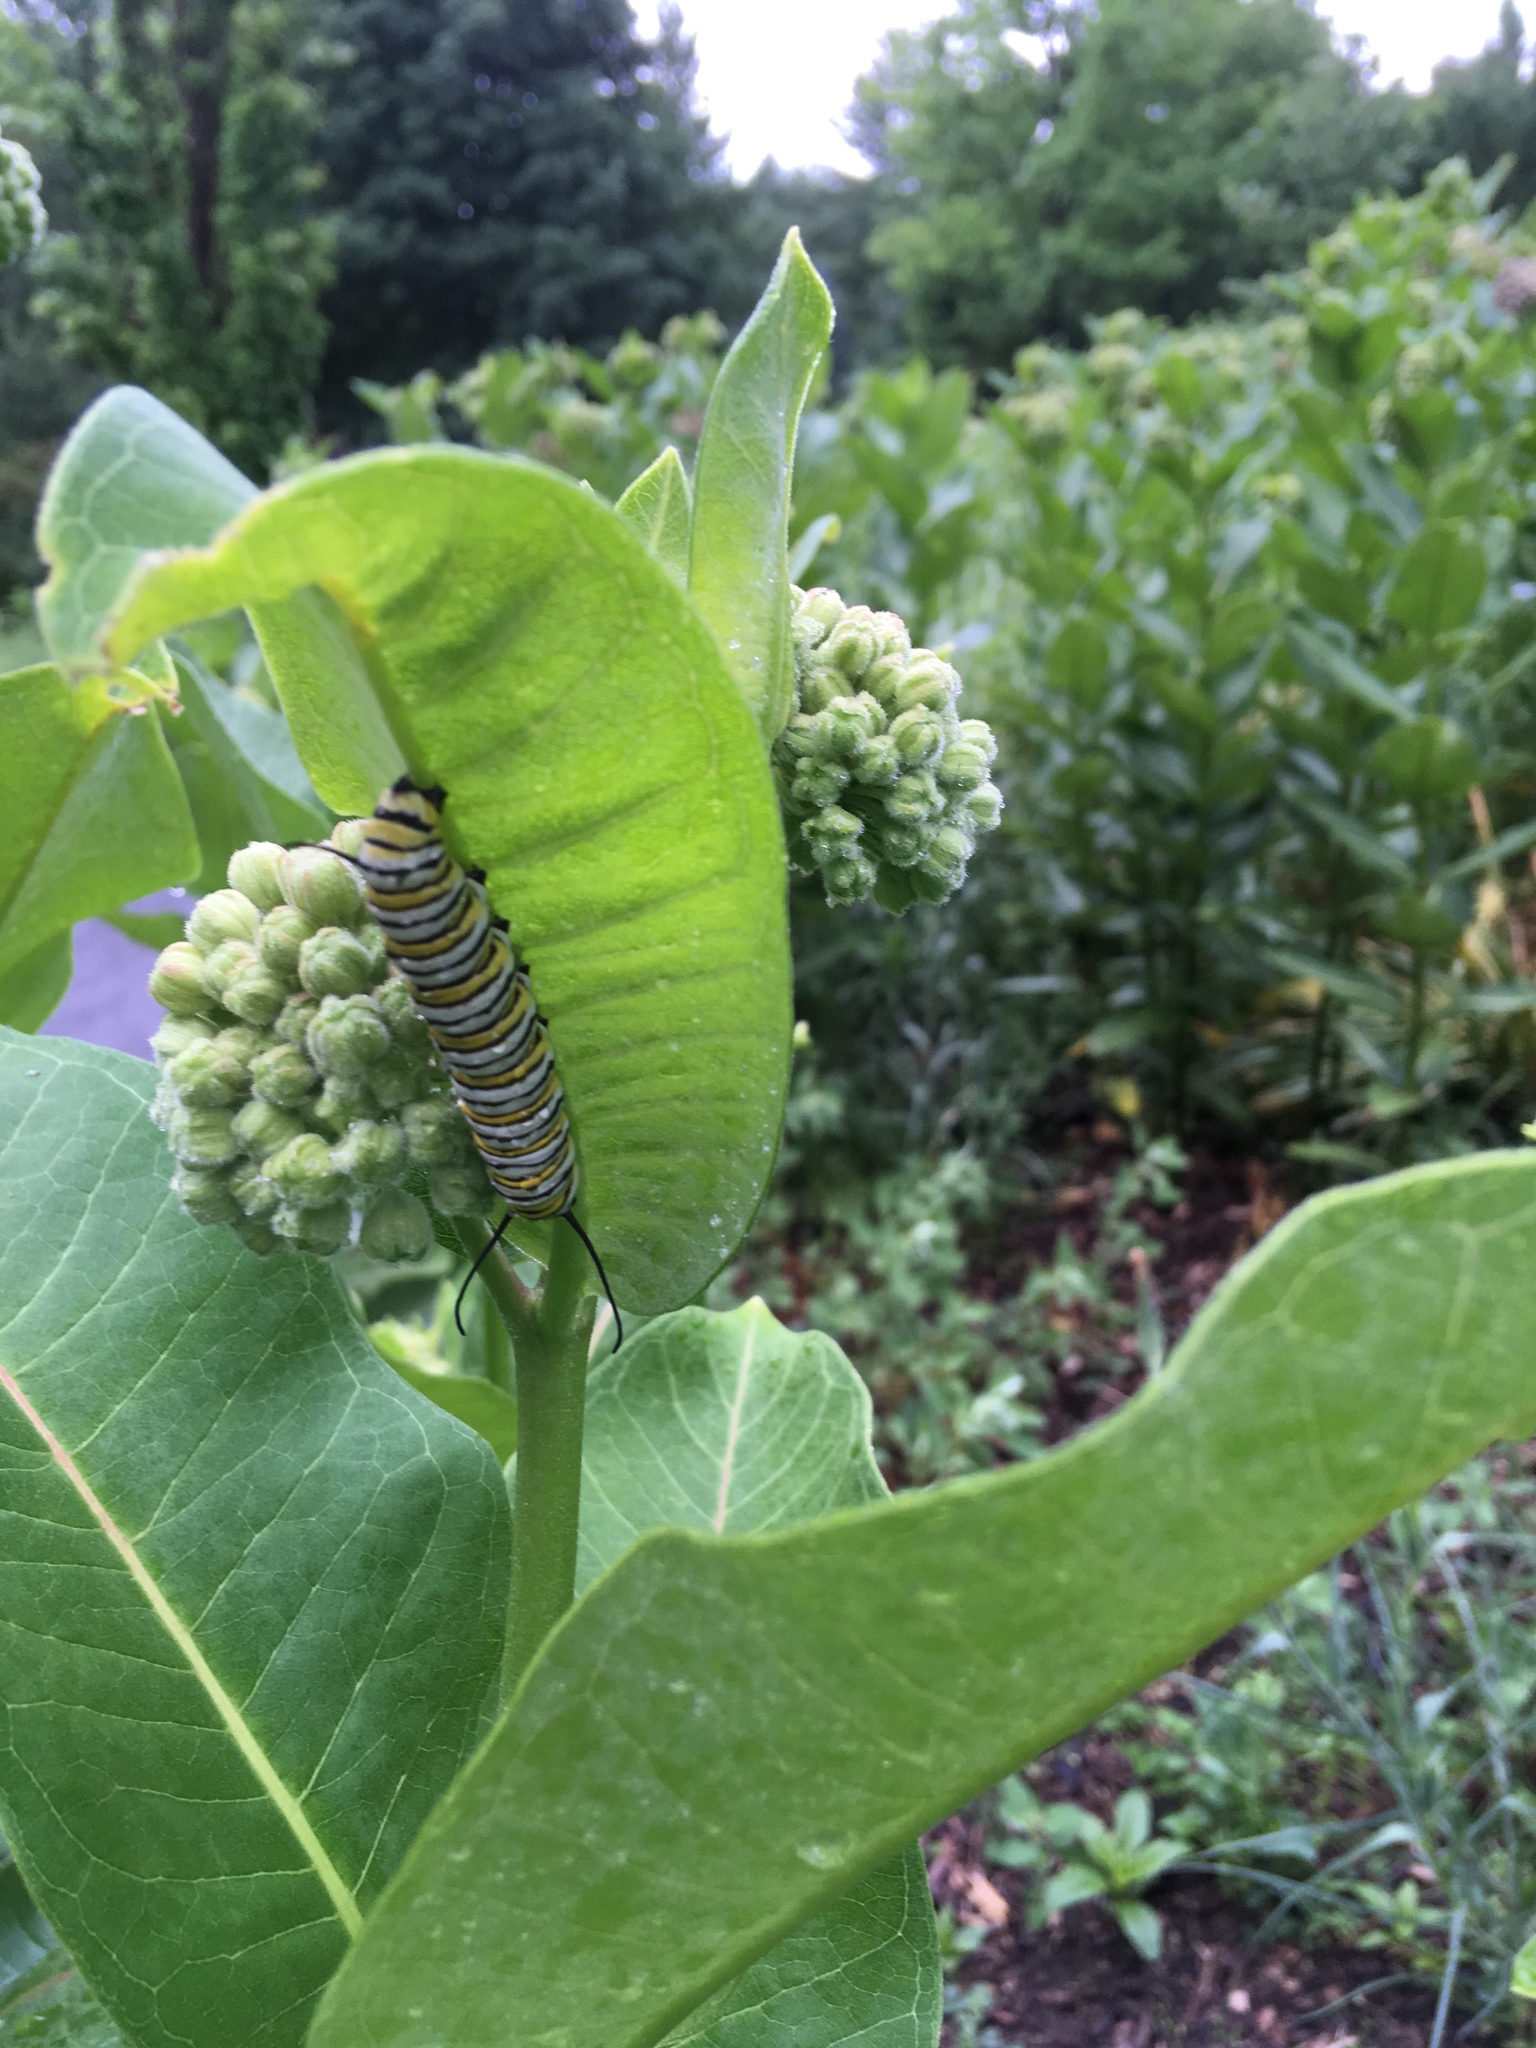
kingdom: Animalia
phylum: Arthropoda
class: Insecta
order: Lepidoptera
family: Nymphalidae
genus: Danaus
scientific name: Danaus plexippus
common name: Monarch
